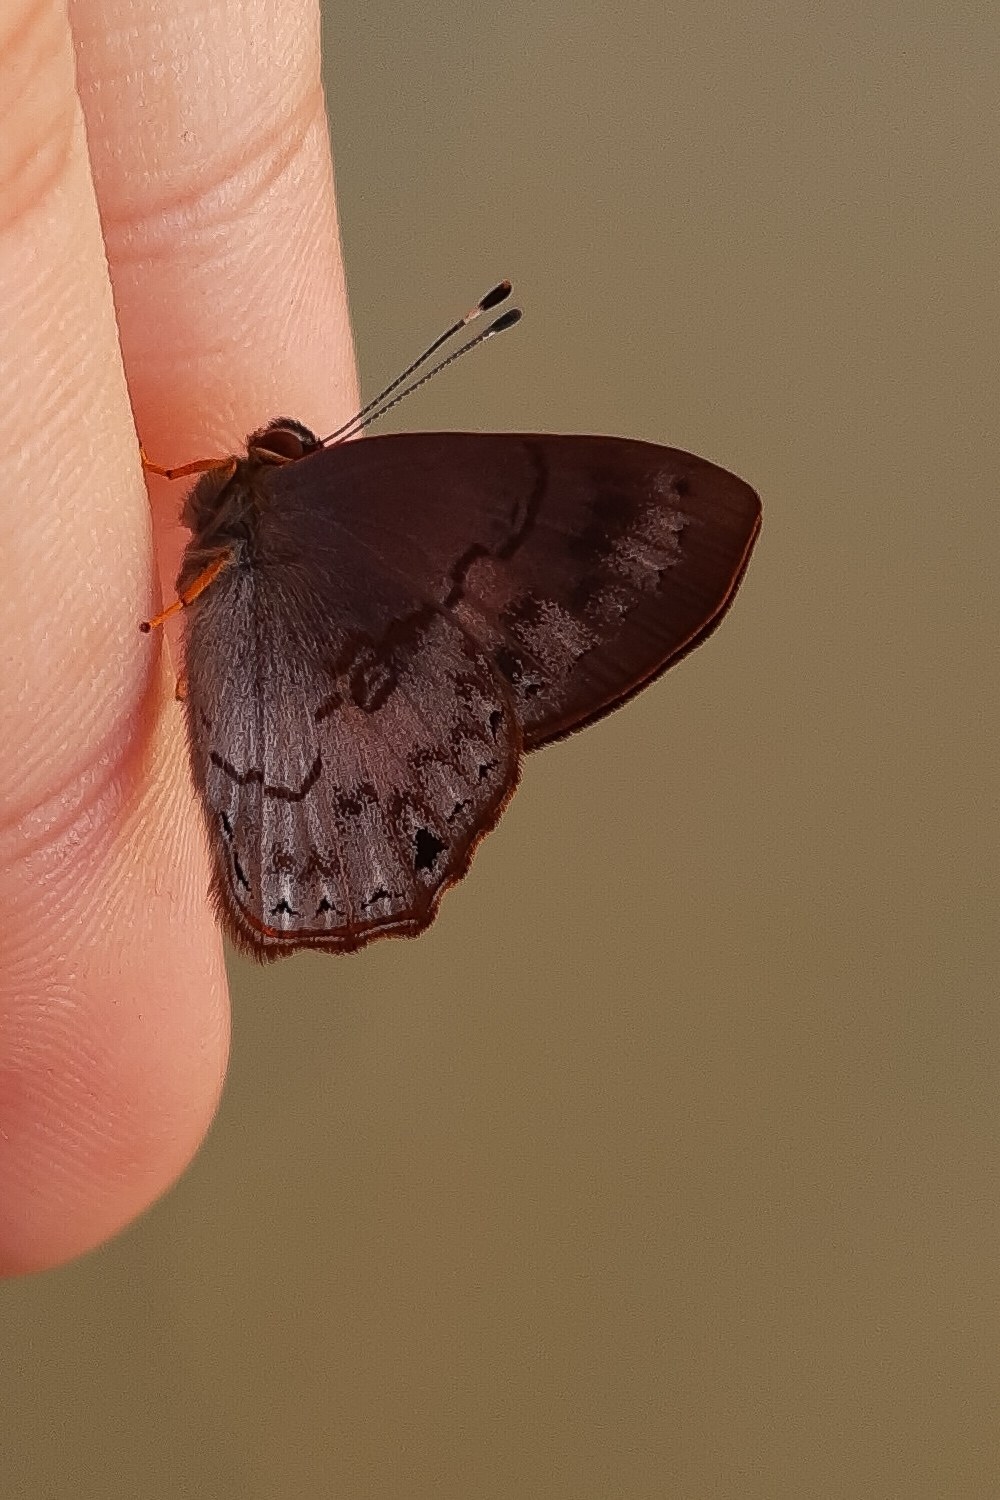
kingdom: Animalia
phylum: Arthropoda
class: Insecta
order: Lepidoptera
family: Lycaenidae
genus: Euselasia
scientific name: Euselasia eucerus
